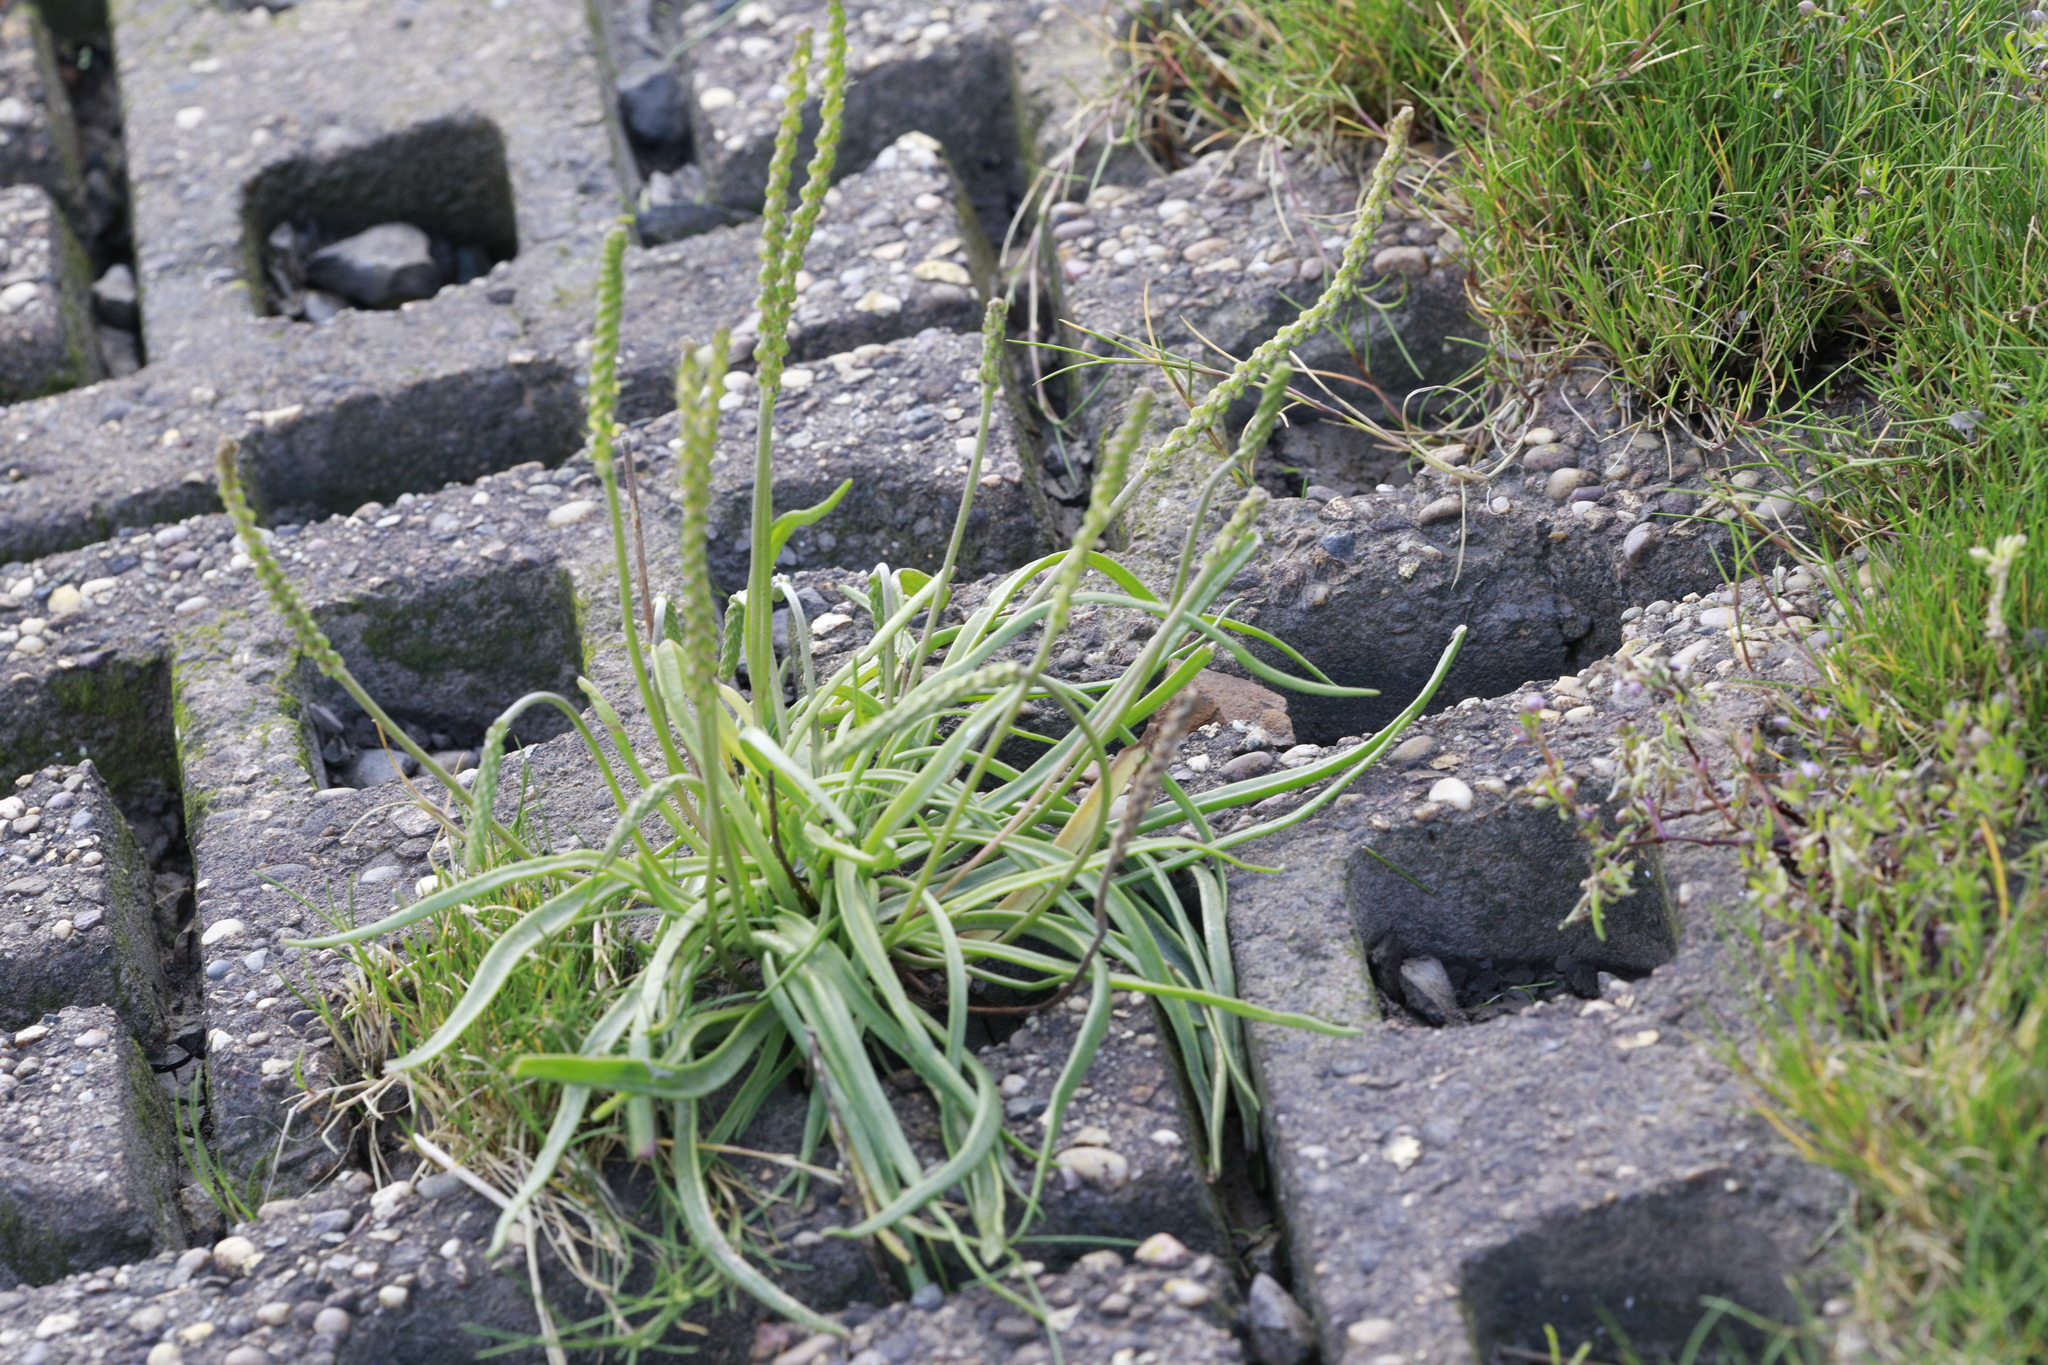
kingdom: Plantae
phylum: Tracheophyta
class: Magnoliopsida
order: Lamiales
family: Plantaginaceae
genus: Plantago
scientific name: Plantago maritima
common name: Sea plantain
